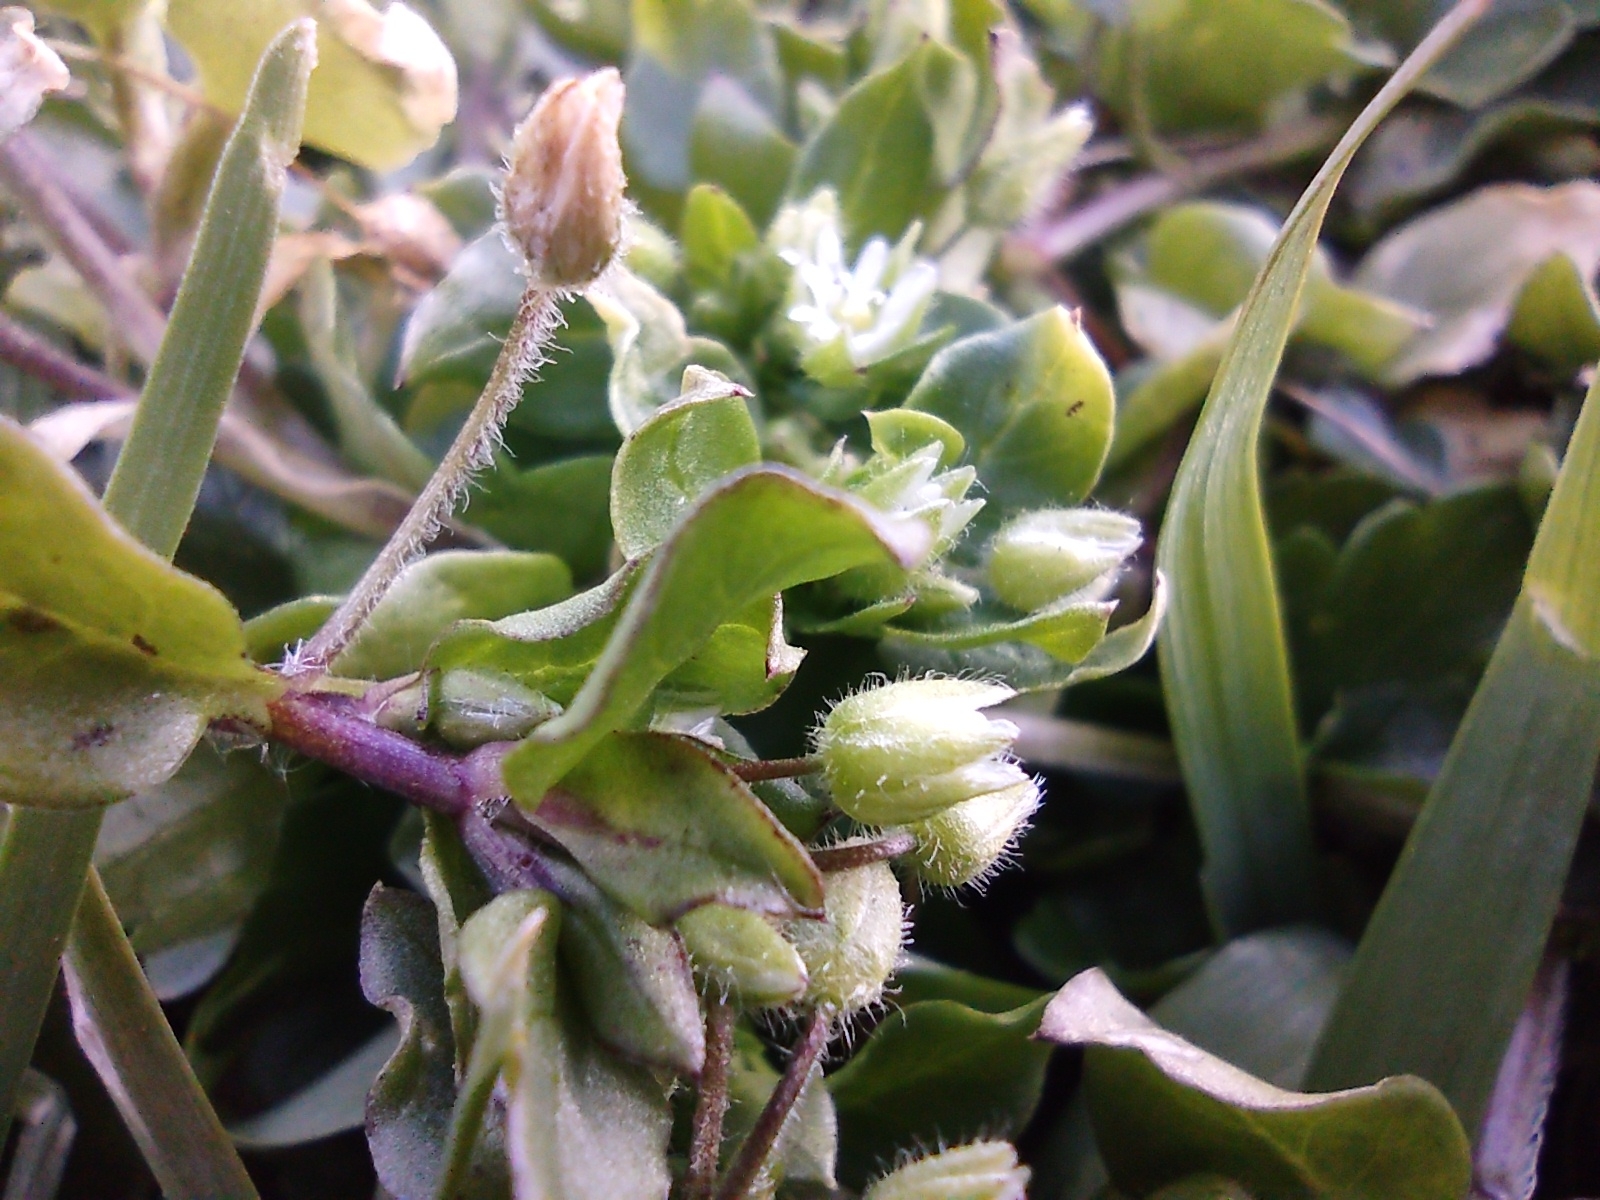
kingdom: Plantae
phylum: Tracheophyta
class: Magnoliopsida
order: Caryophyllales
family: Caryophyllaceae
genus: Stellaria
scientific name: Stellaria media
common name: Common chickweed
